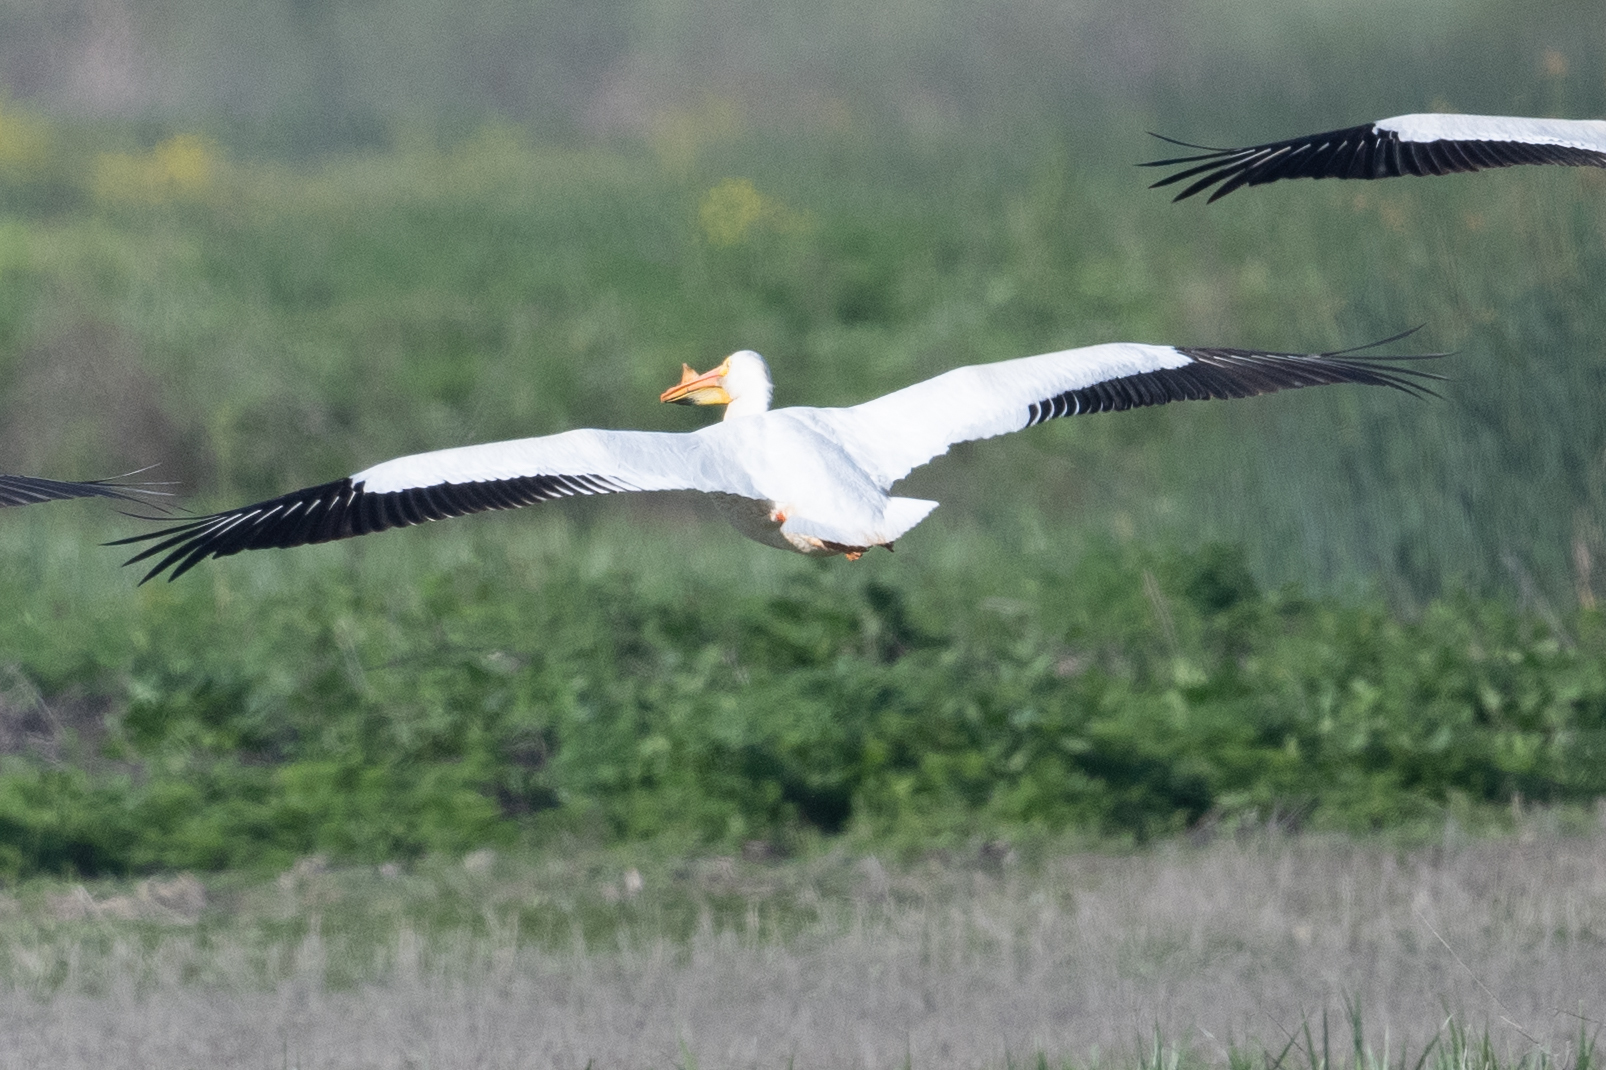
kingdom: Animalia
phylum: Chordata
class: Aves
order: Pelecaniformes
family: Pelecanidae
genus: Pelecanus
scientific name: Pelecanus erythrorhynchos
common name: American white pelican
